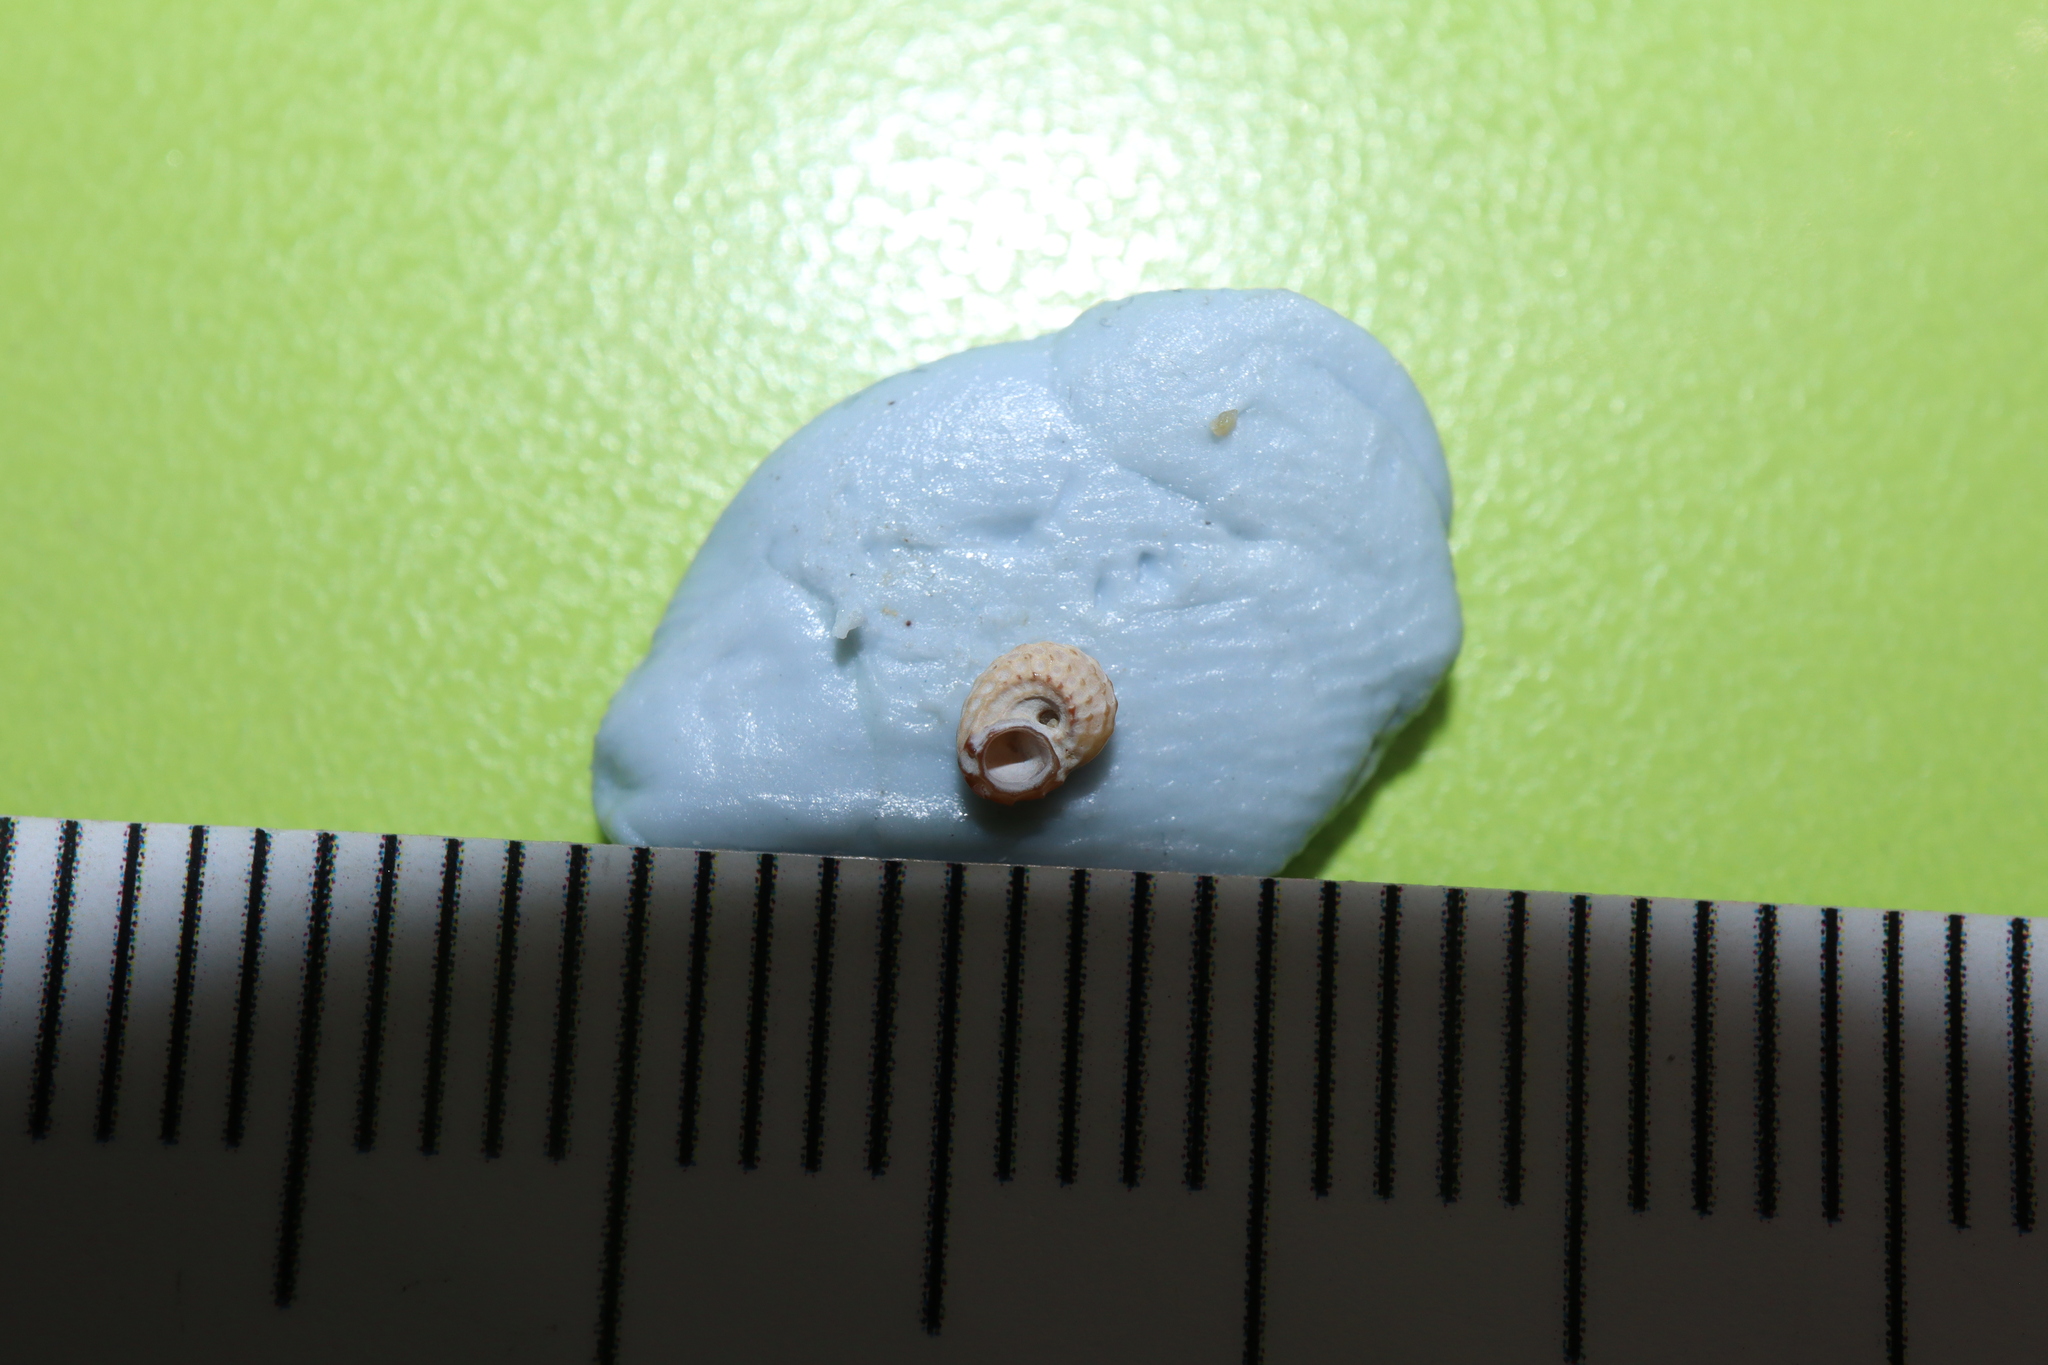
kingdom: Animalia
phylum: Mollusca
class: Gastropoda
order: Littorinimorpha
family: Tornidae
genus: Pseudoliotia
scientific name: Pseudoliotia micans
